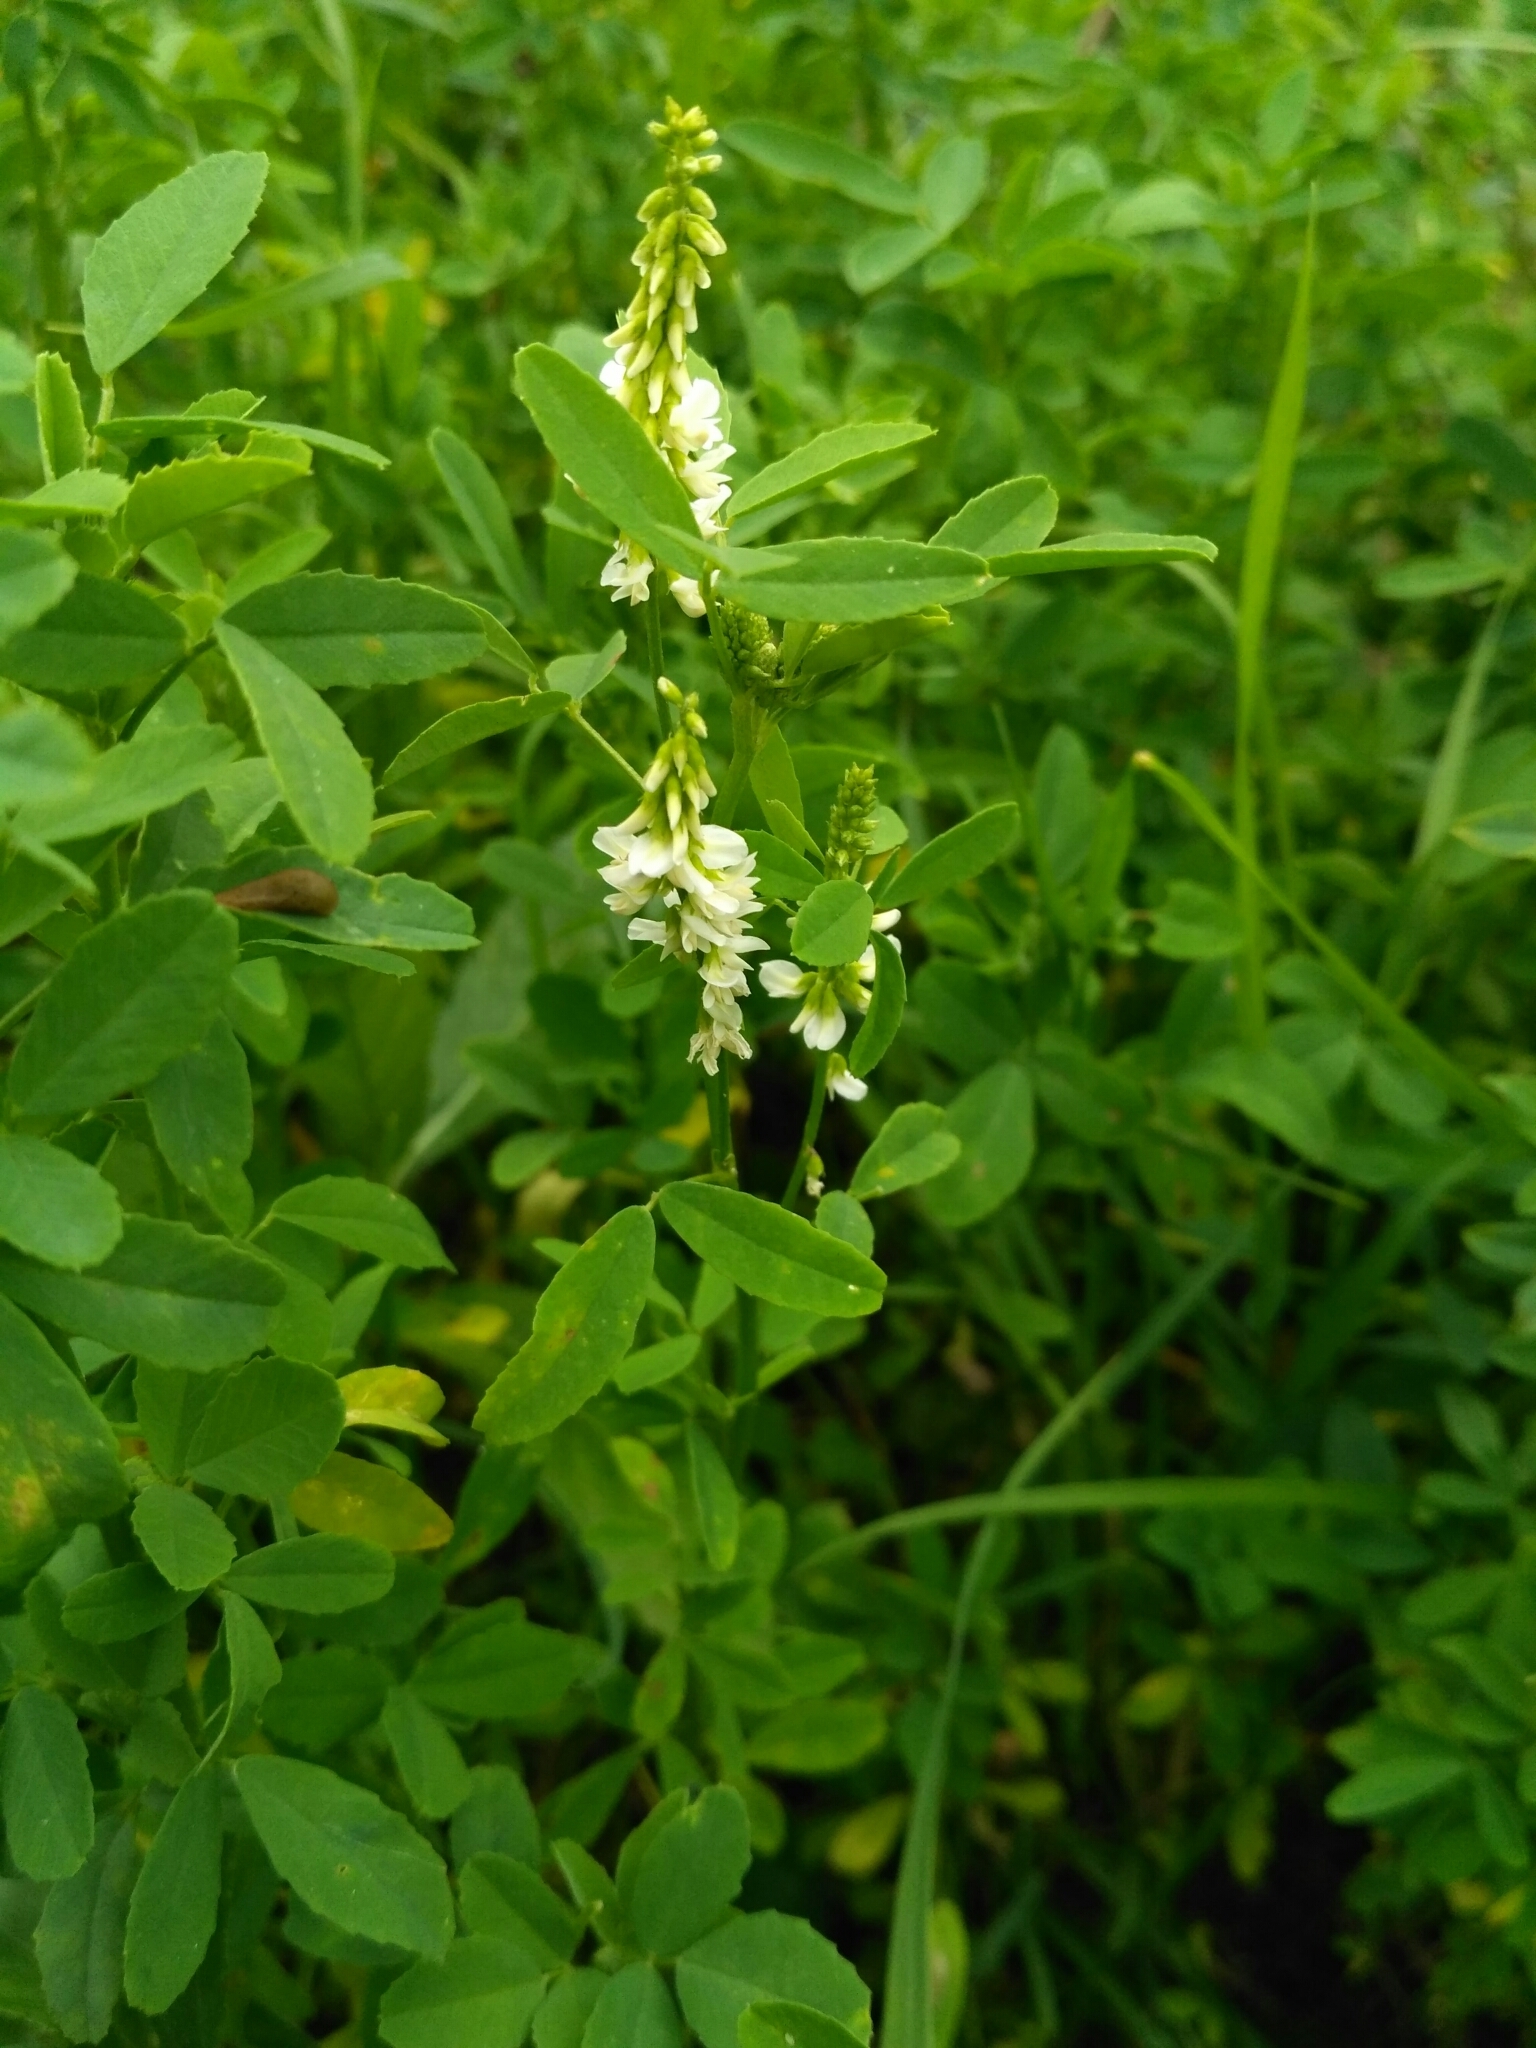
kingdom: Plantae
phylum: Tracheophyta
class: Magnoliopsida
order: Fabales
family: Fabaceae
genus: Melilotus
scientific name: Melilotus albus
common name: White melilot
